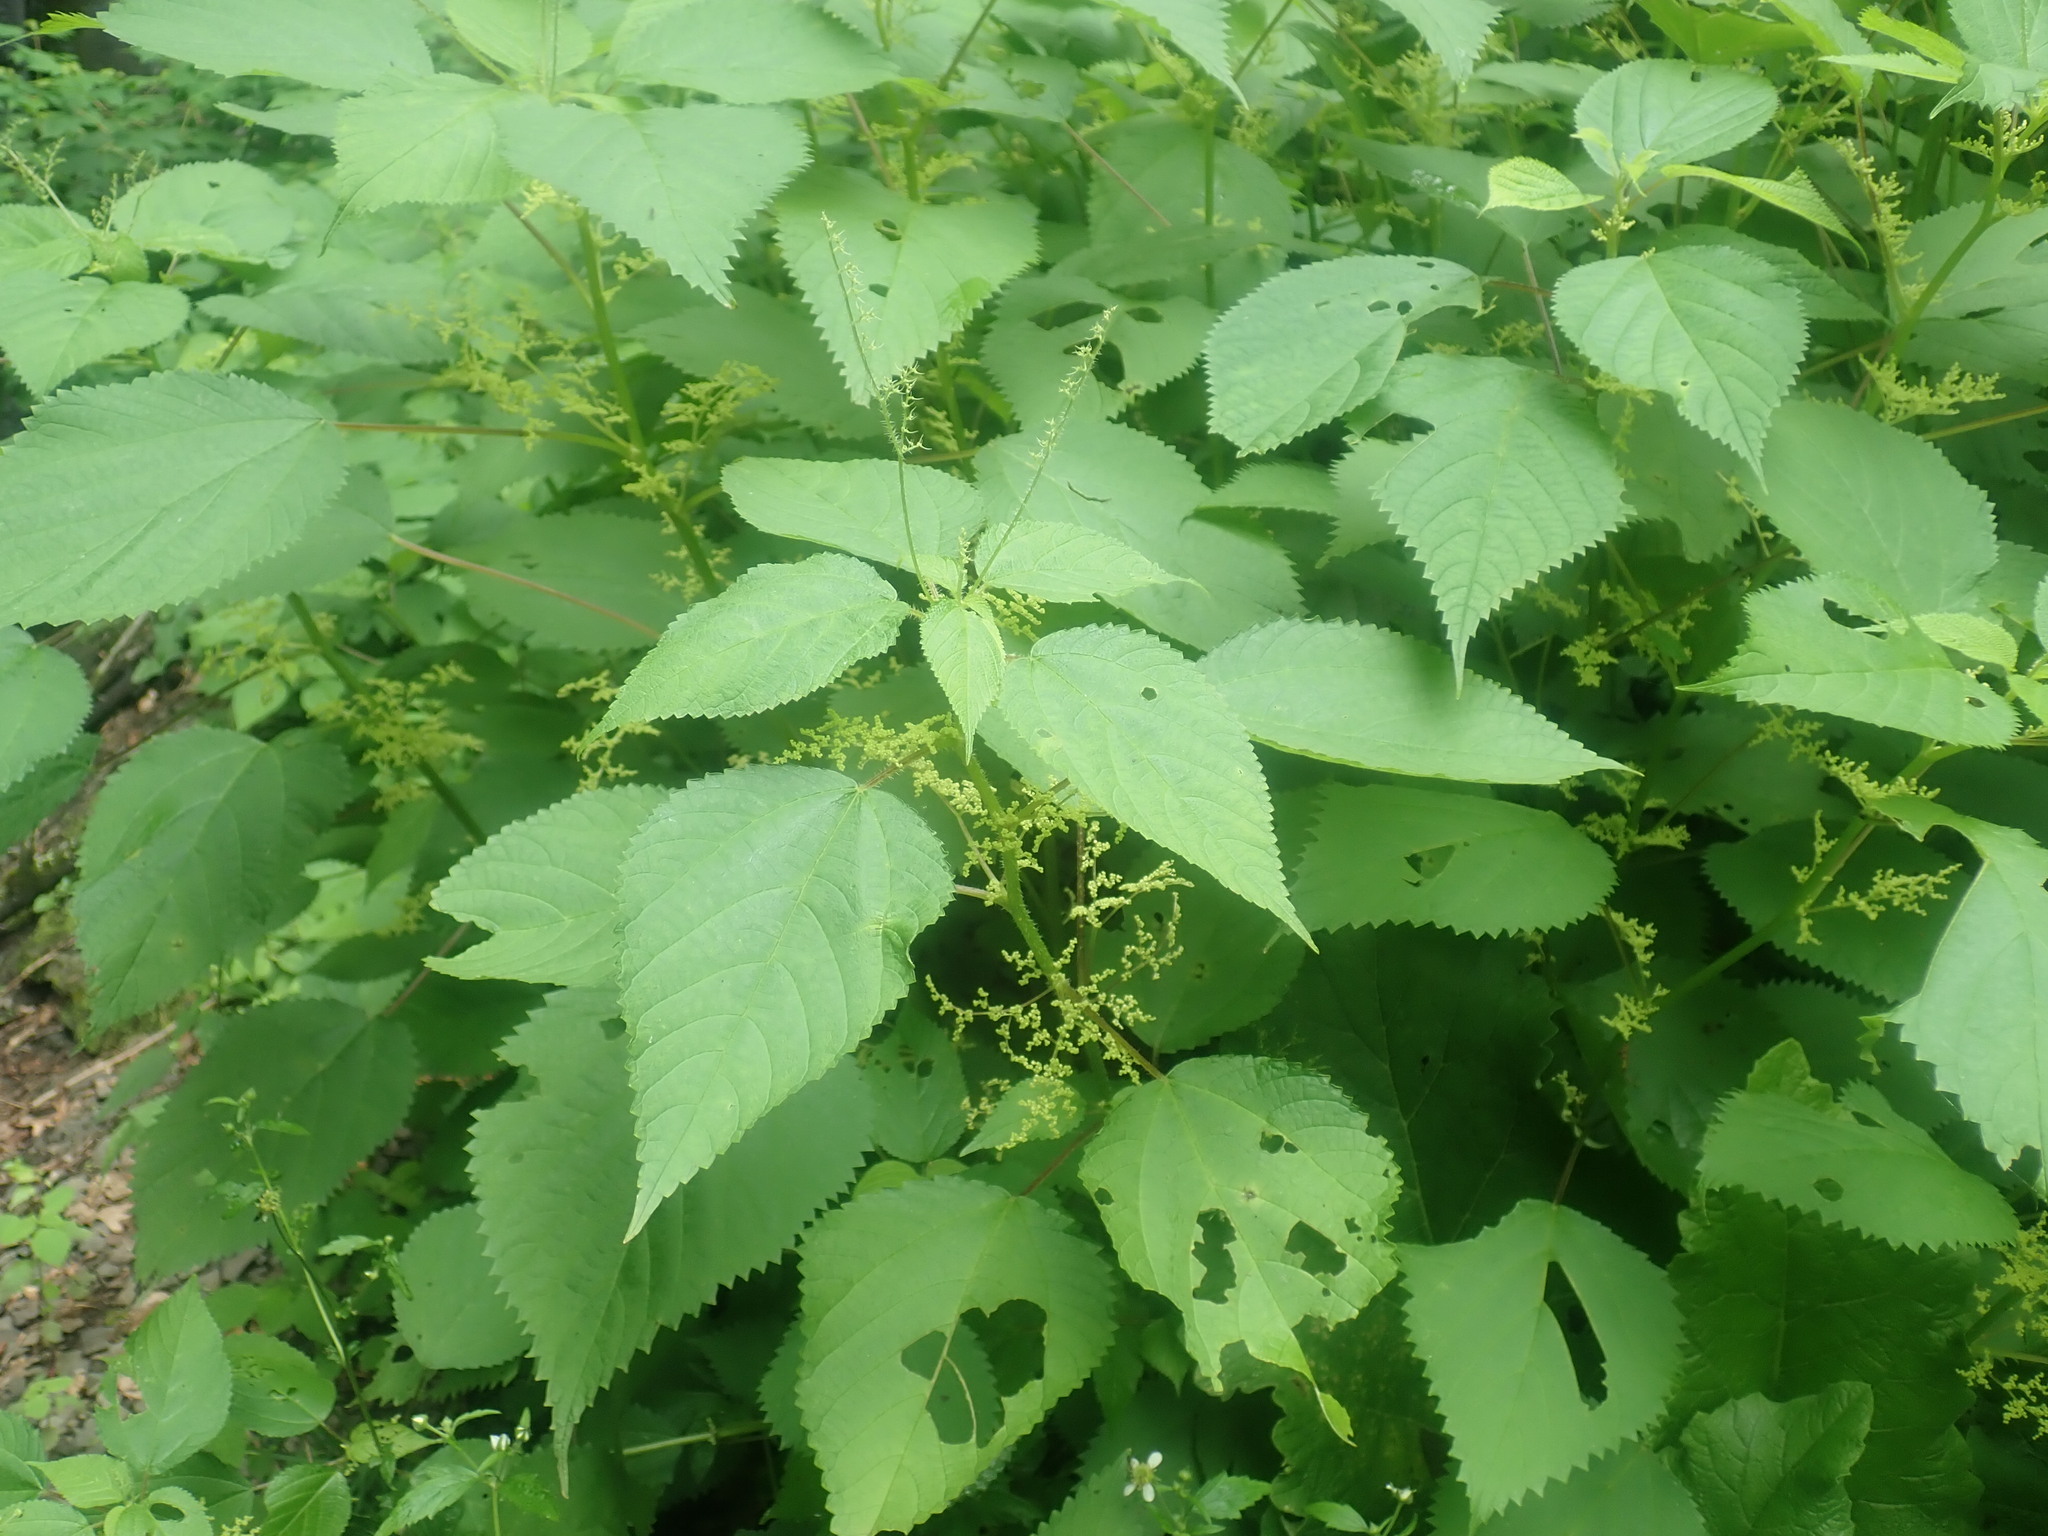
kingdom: Plantae
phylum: Tracheophyta
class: Magnoliopsida
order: Rosales
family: Urticaceae
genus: Laportea
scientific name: Laportea canadensis
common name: Canada nettle
